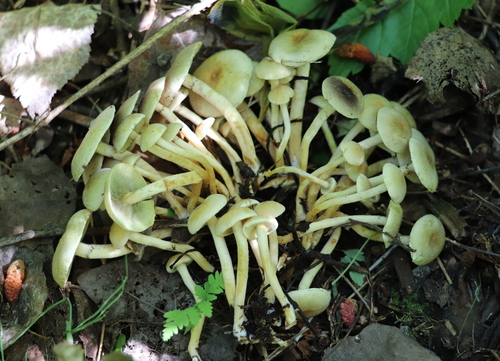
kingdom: Fungi
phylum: Basidiomycota
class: Agaricomycetes
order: Agaricales
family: Strophariaceae
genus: Hypholoma
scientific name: Hypholoma fasciculare
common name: Sulphur tuft
